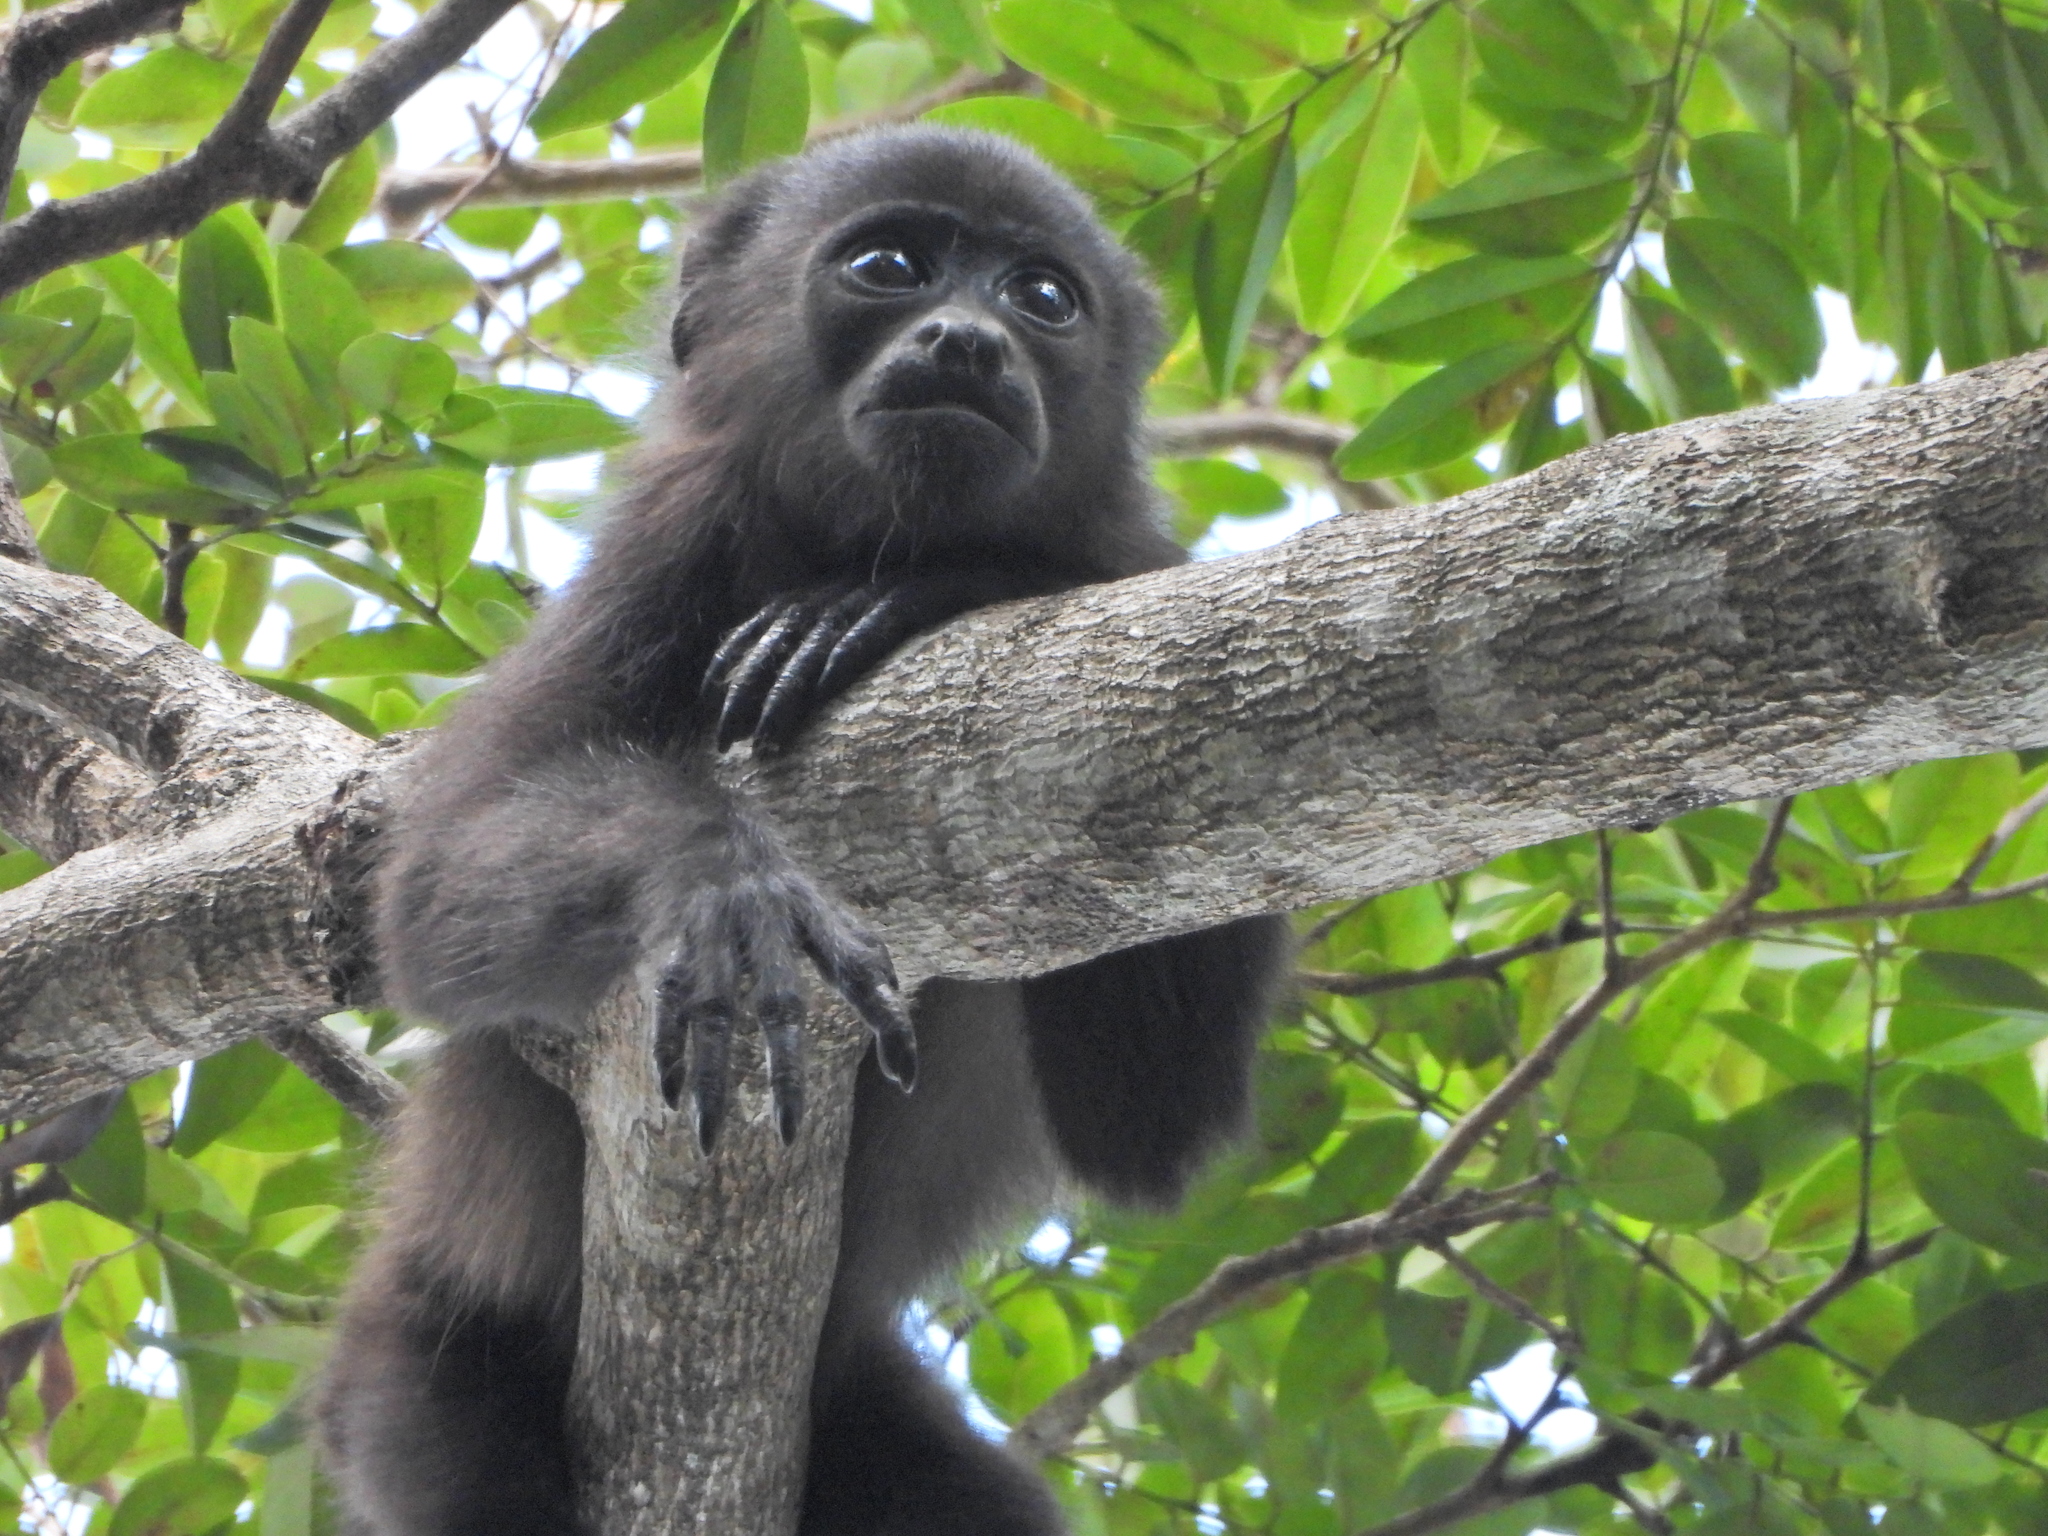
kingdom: Animalia
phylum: Chordata
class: Mammalia
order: Primates
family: Atelidae
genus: Alouatta
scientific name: Alouatta palliata
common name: Mantled howler
